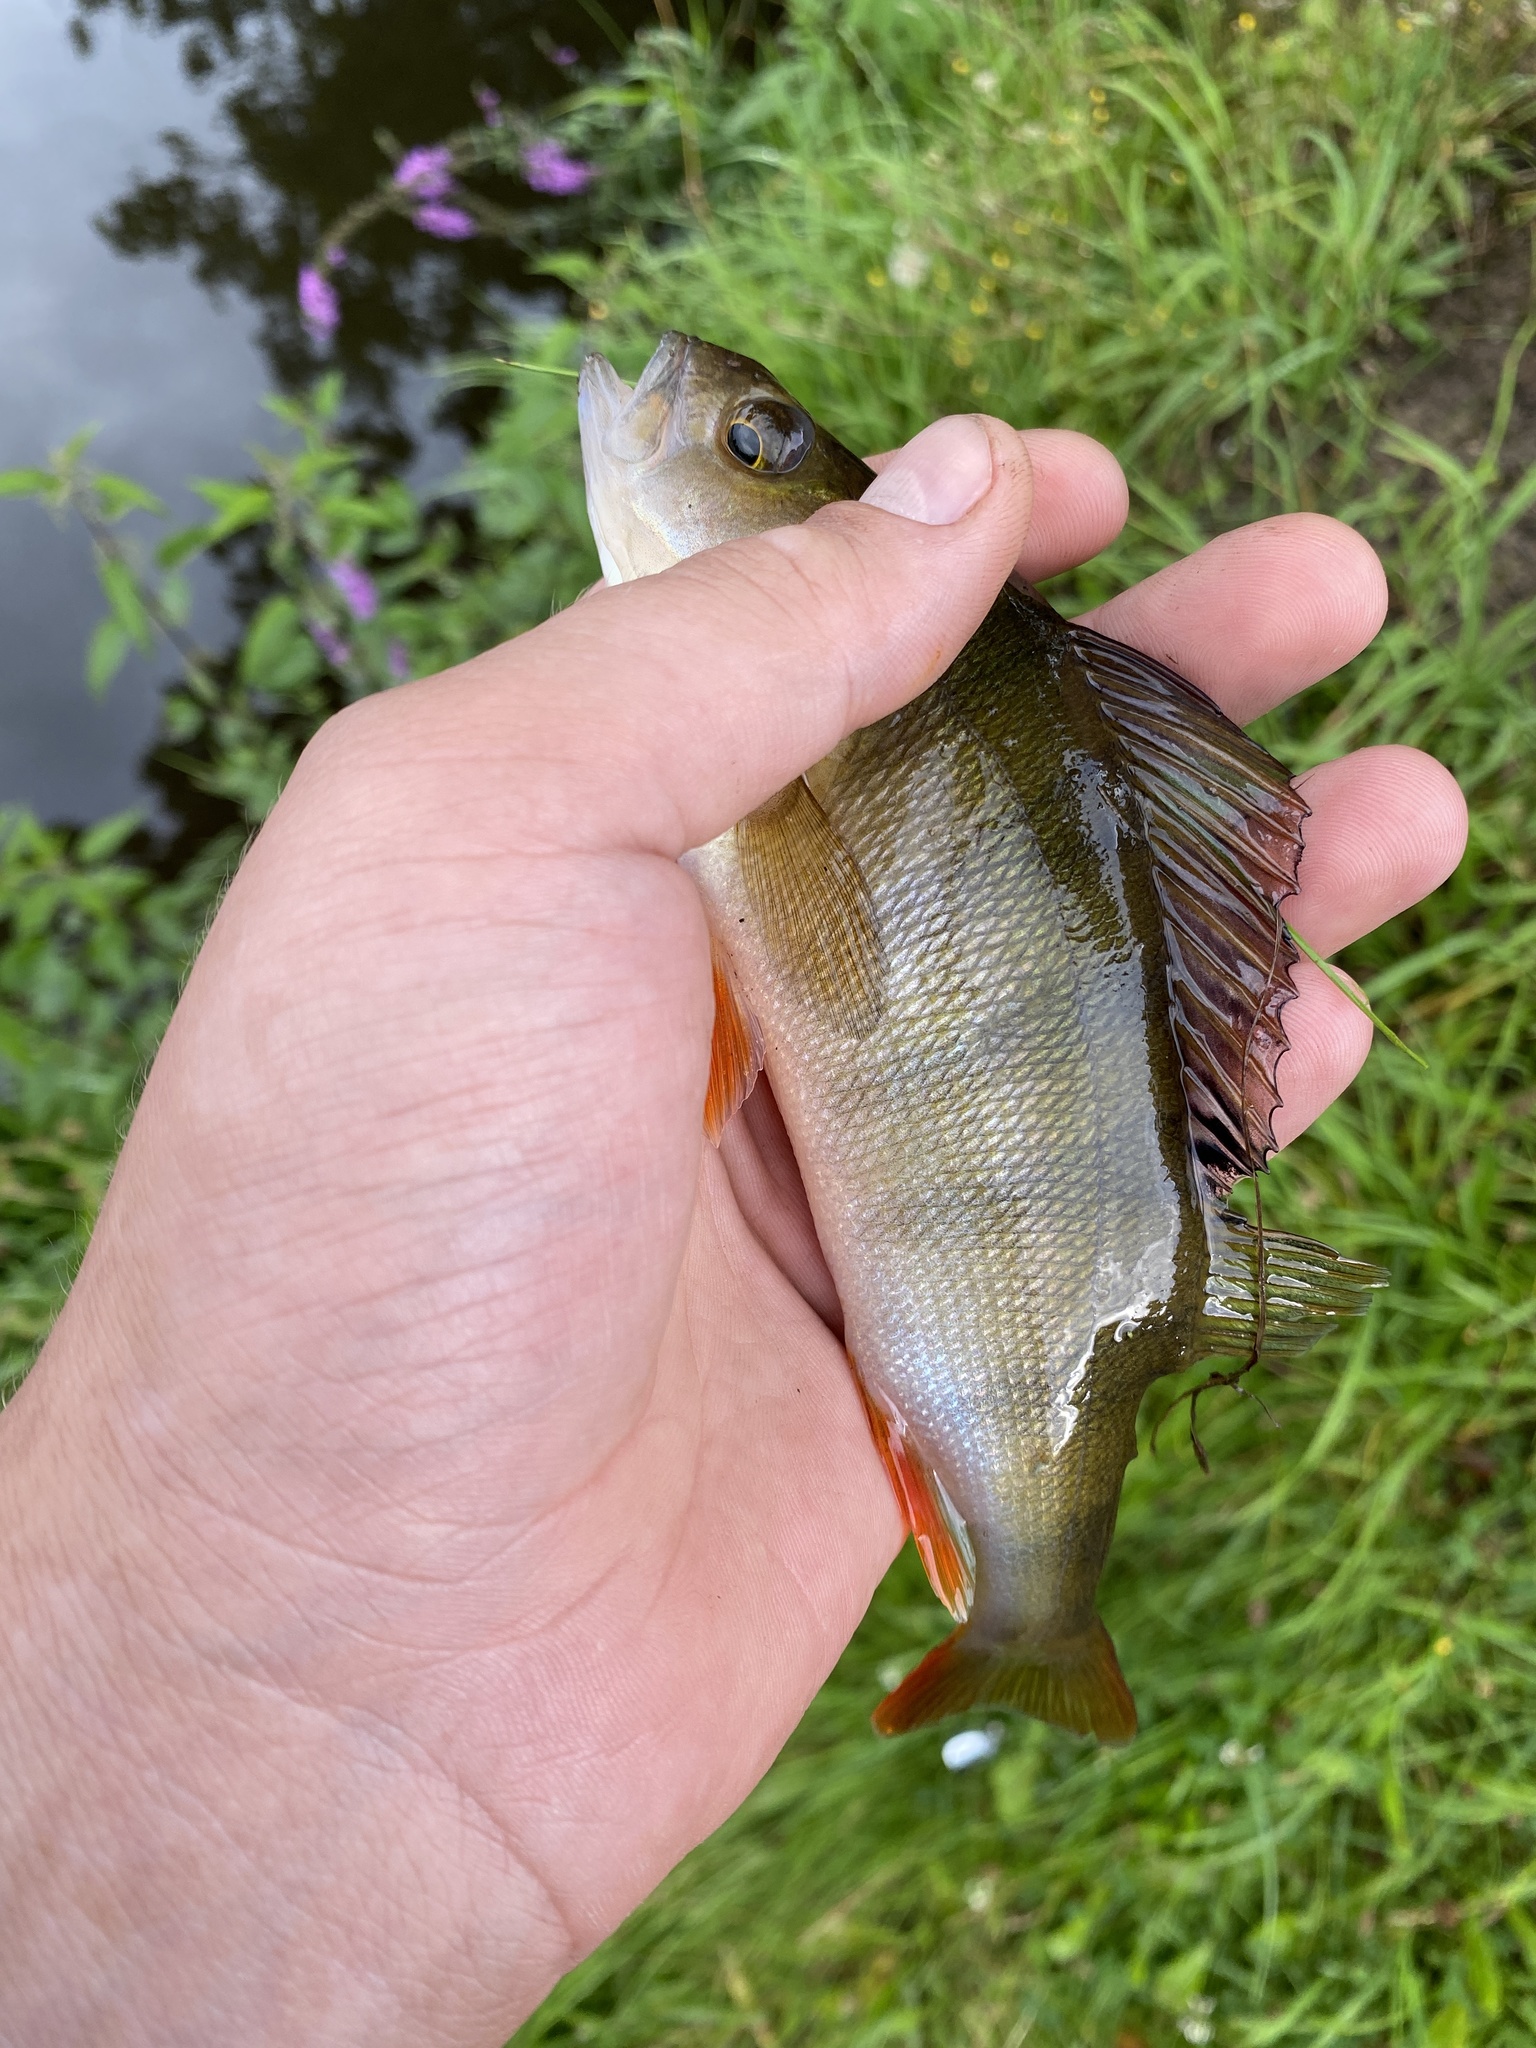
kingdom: Animalia
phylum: Chordata
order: Perciformes
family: Percidae
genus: Perca
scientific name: Perca fluviatilis
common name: Perch
